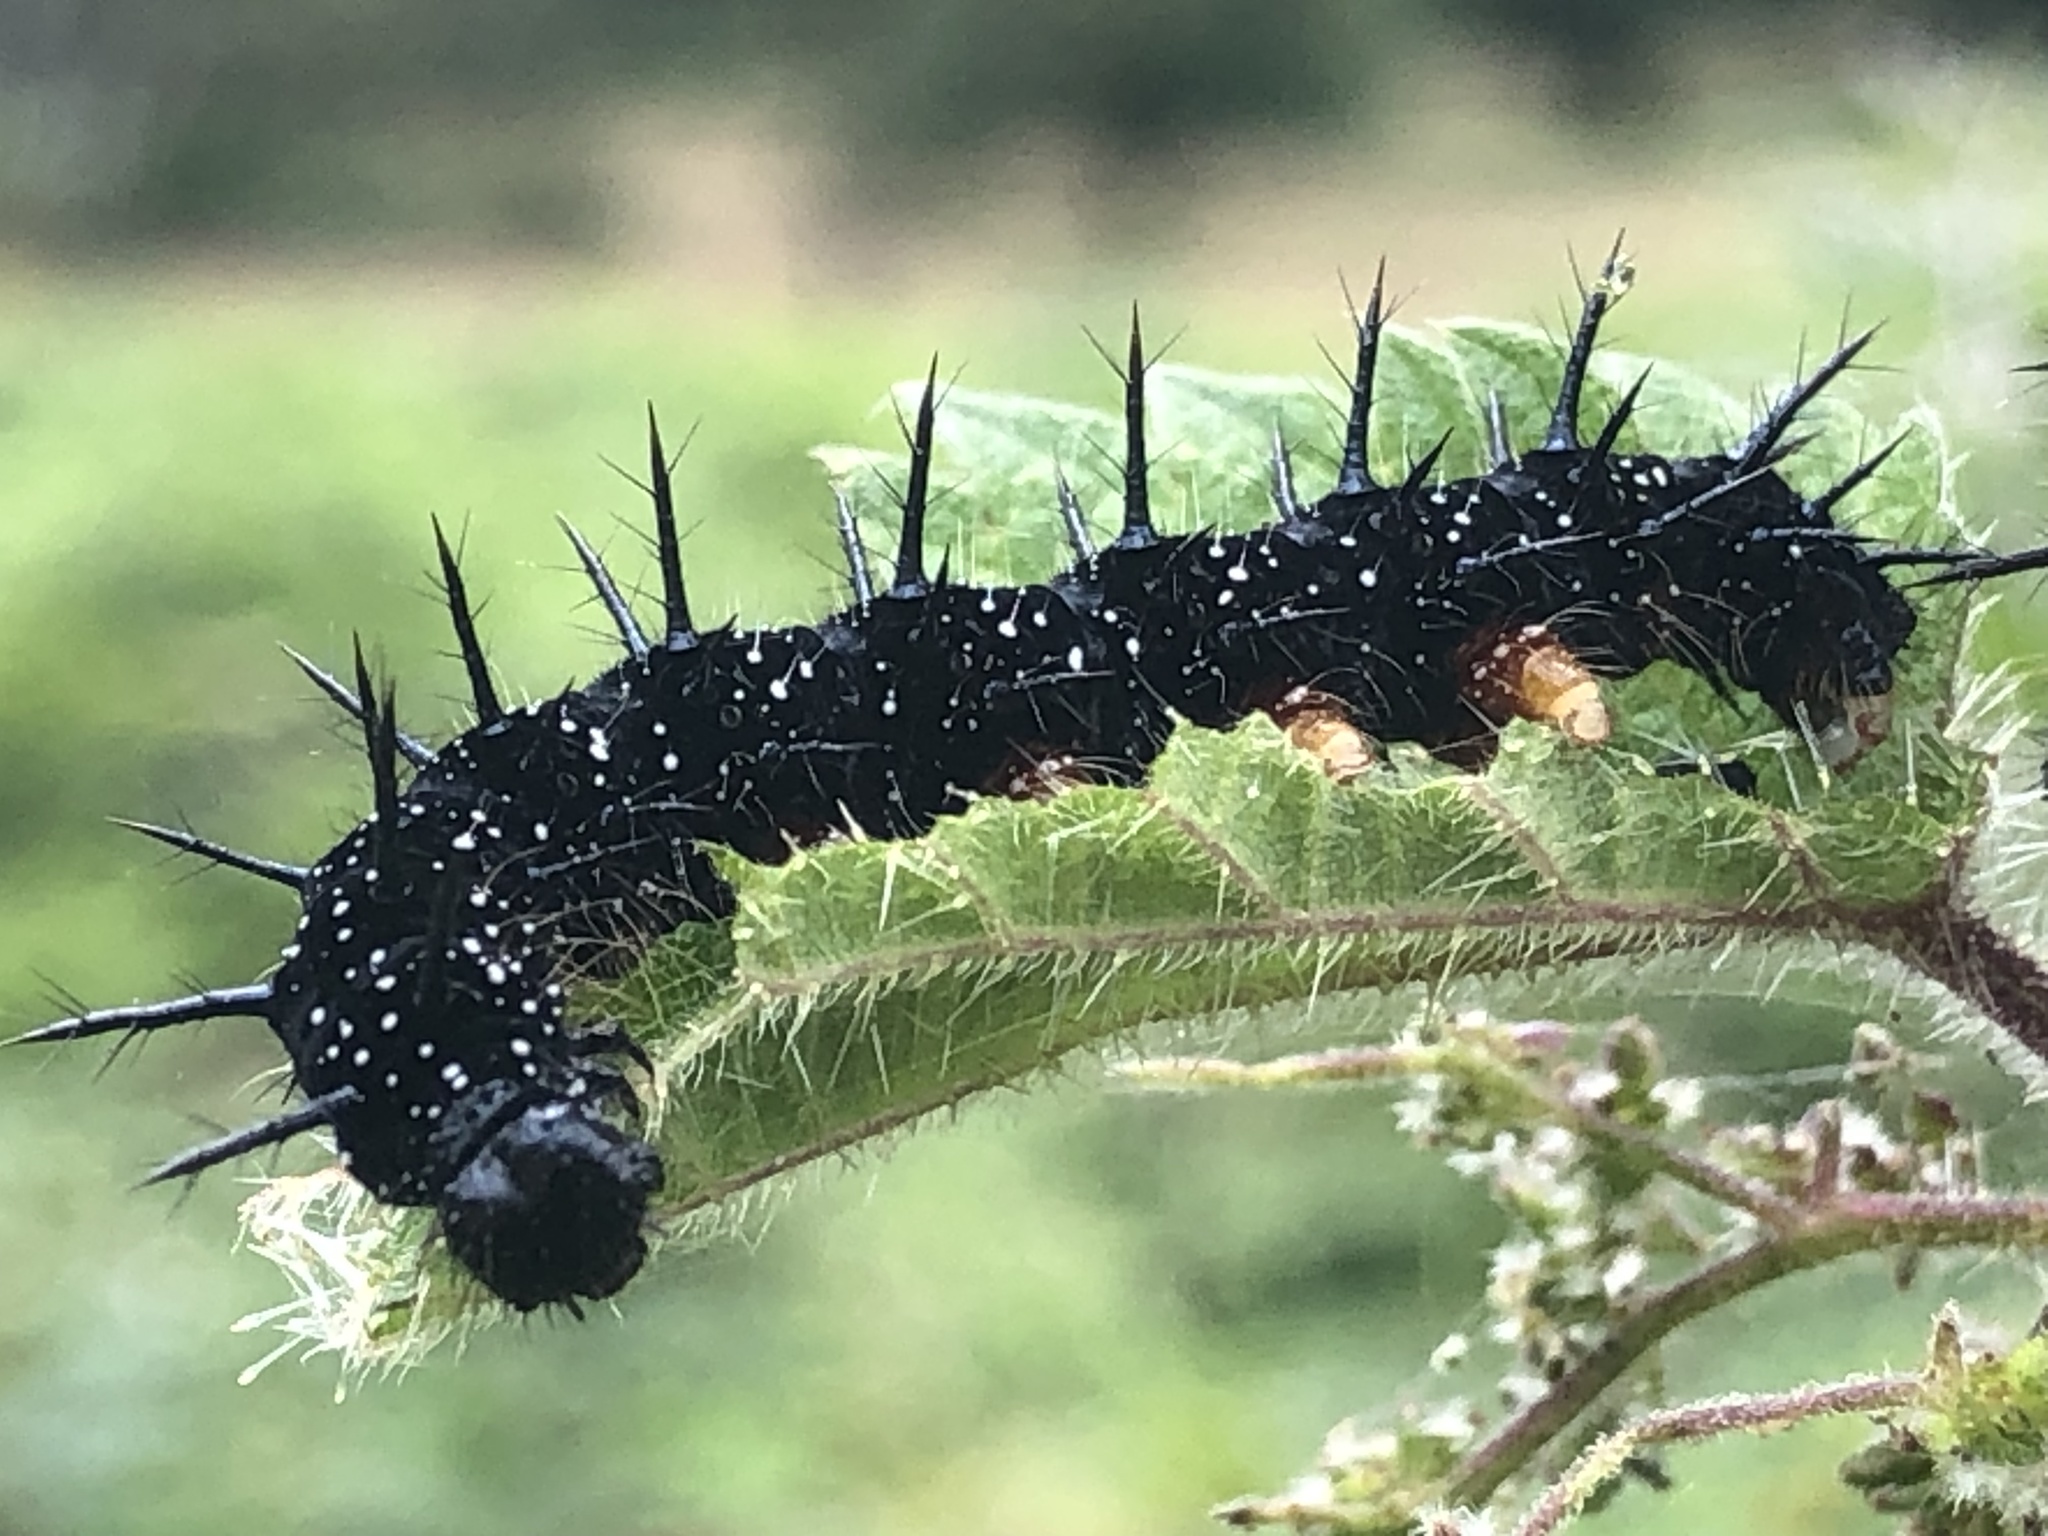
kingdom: Animalia
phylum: Arthropoda
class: Insecta
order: Lepidoptera
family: Nymphalidae
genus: Aglais
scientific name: Aglais io
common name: Peacock
